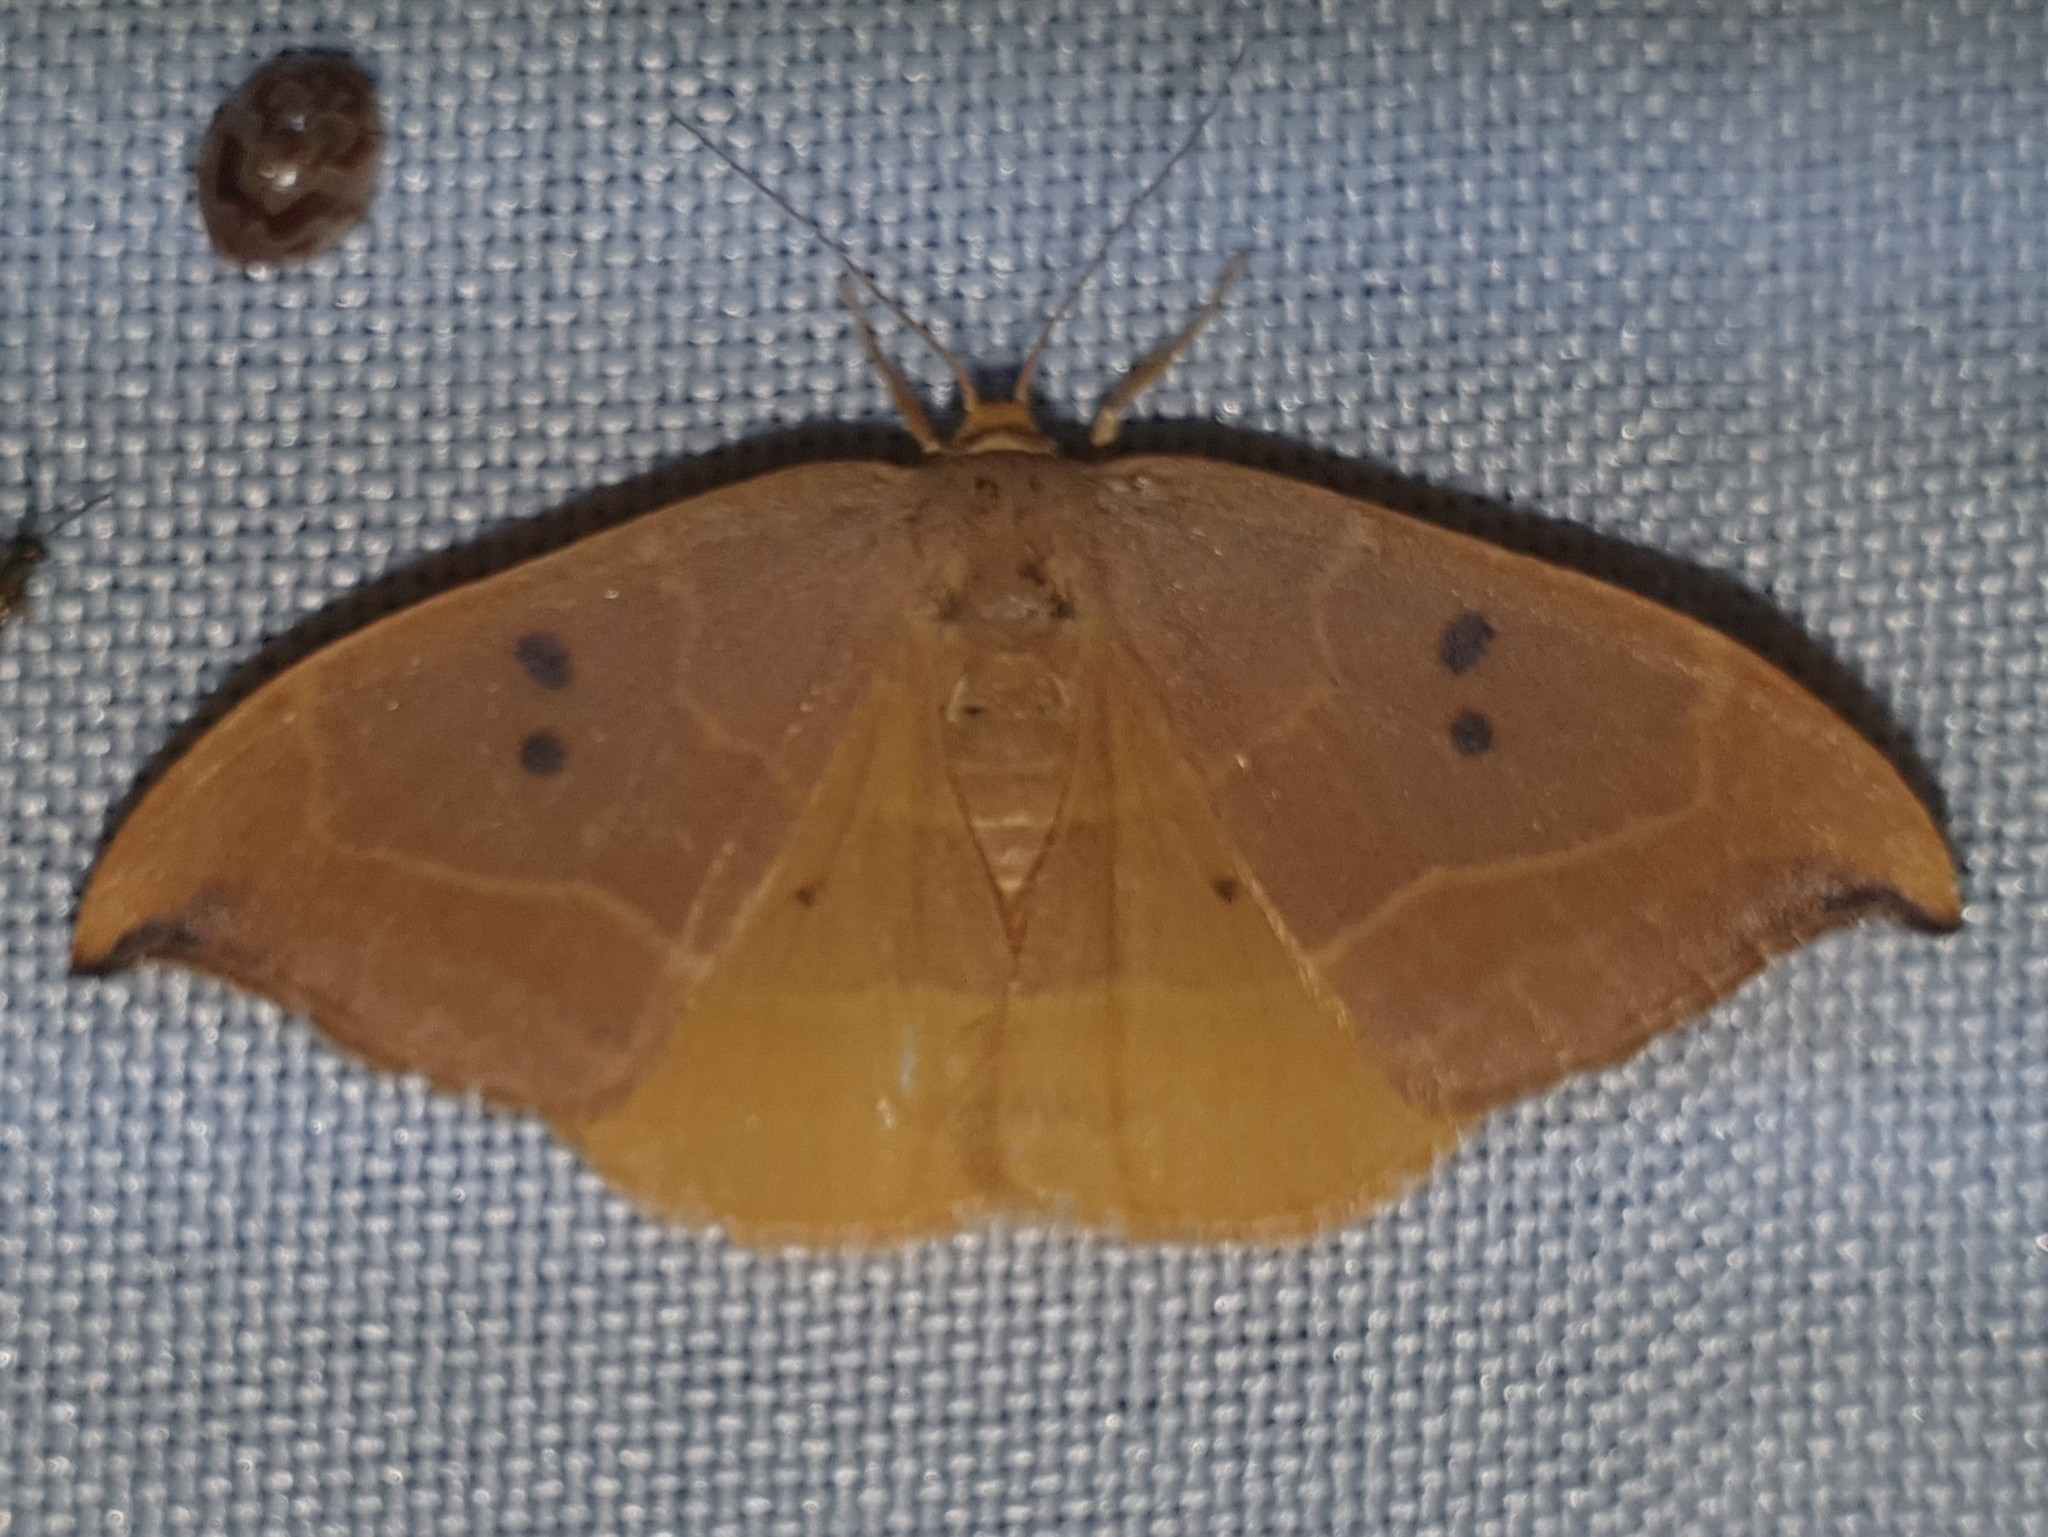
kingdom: Animalia
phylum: Arthropoda
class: Insecta
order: Lepidoptera
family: Drepanidae
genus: Watsonalla
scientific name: Watsonalla binaria
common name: Oak hook-tip
